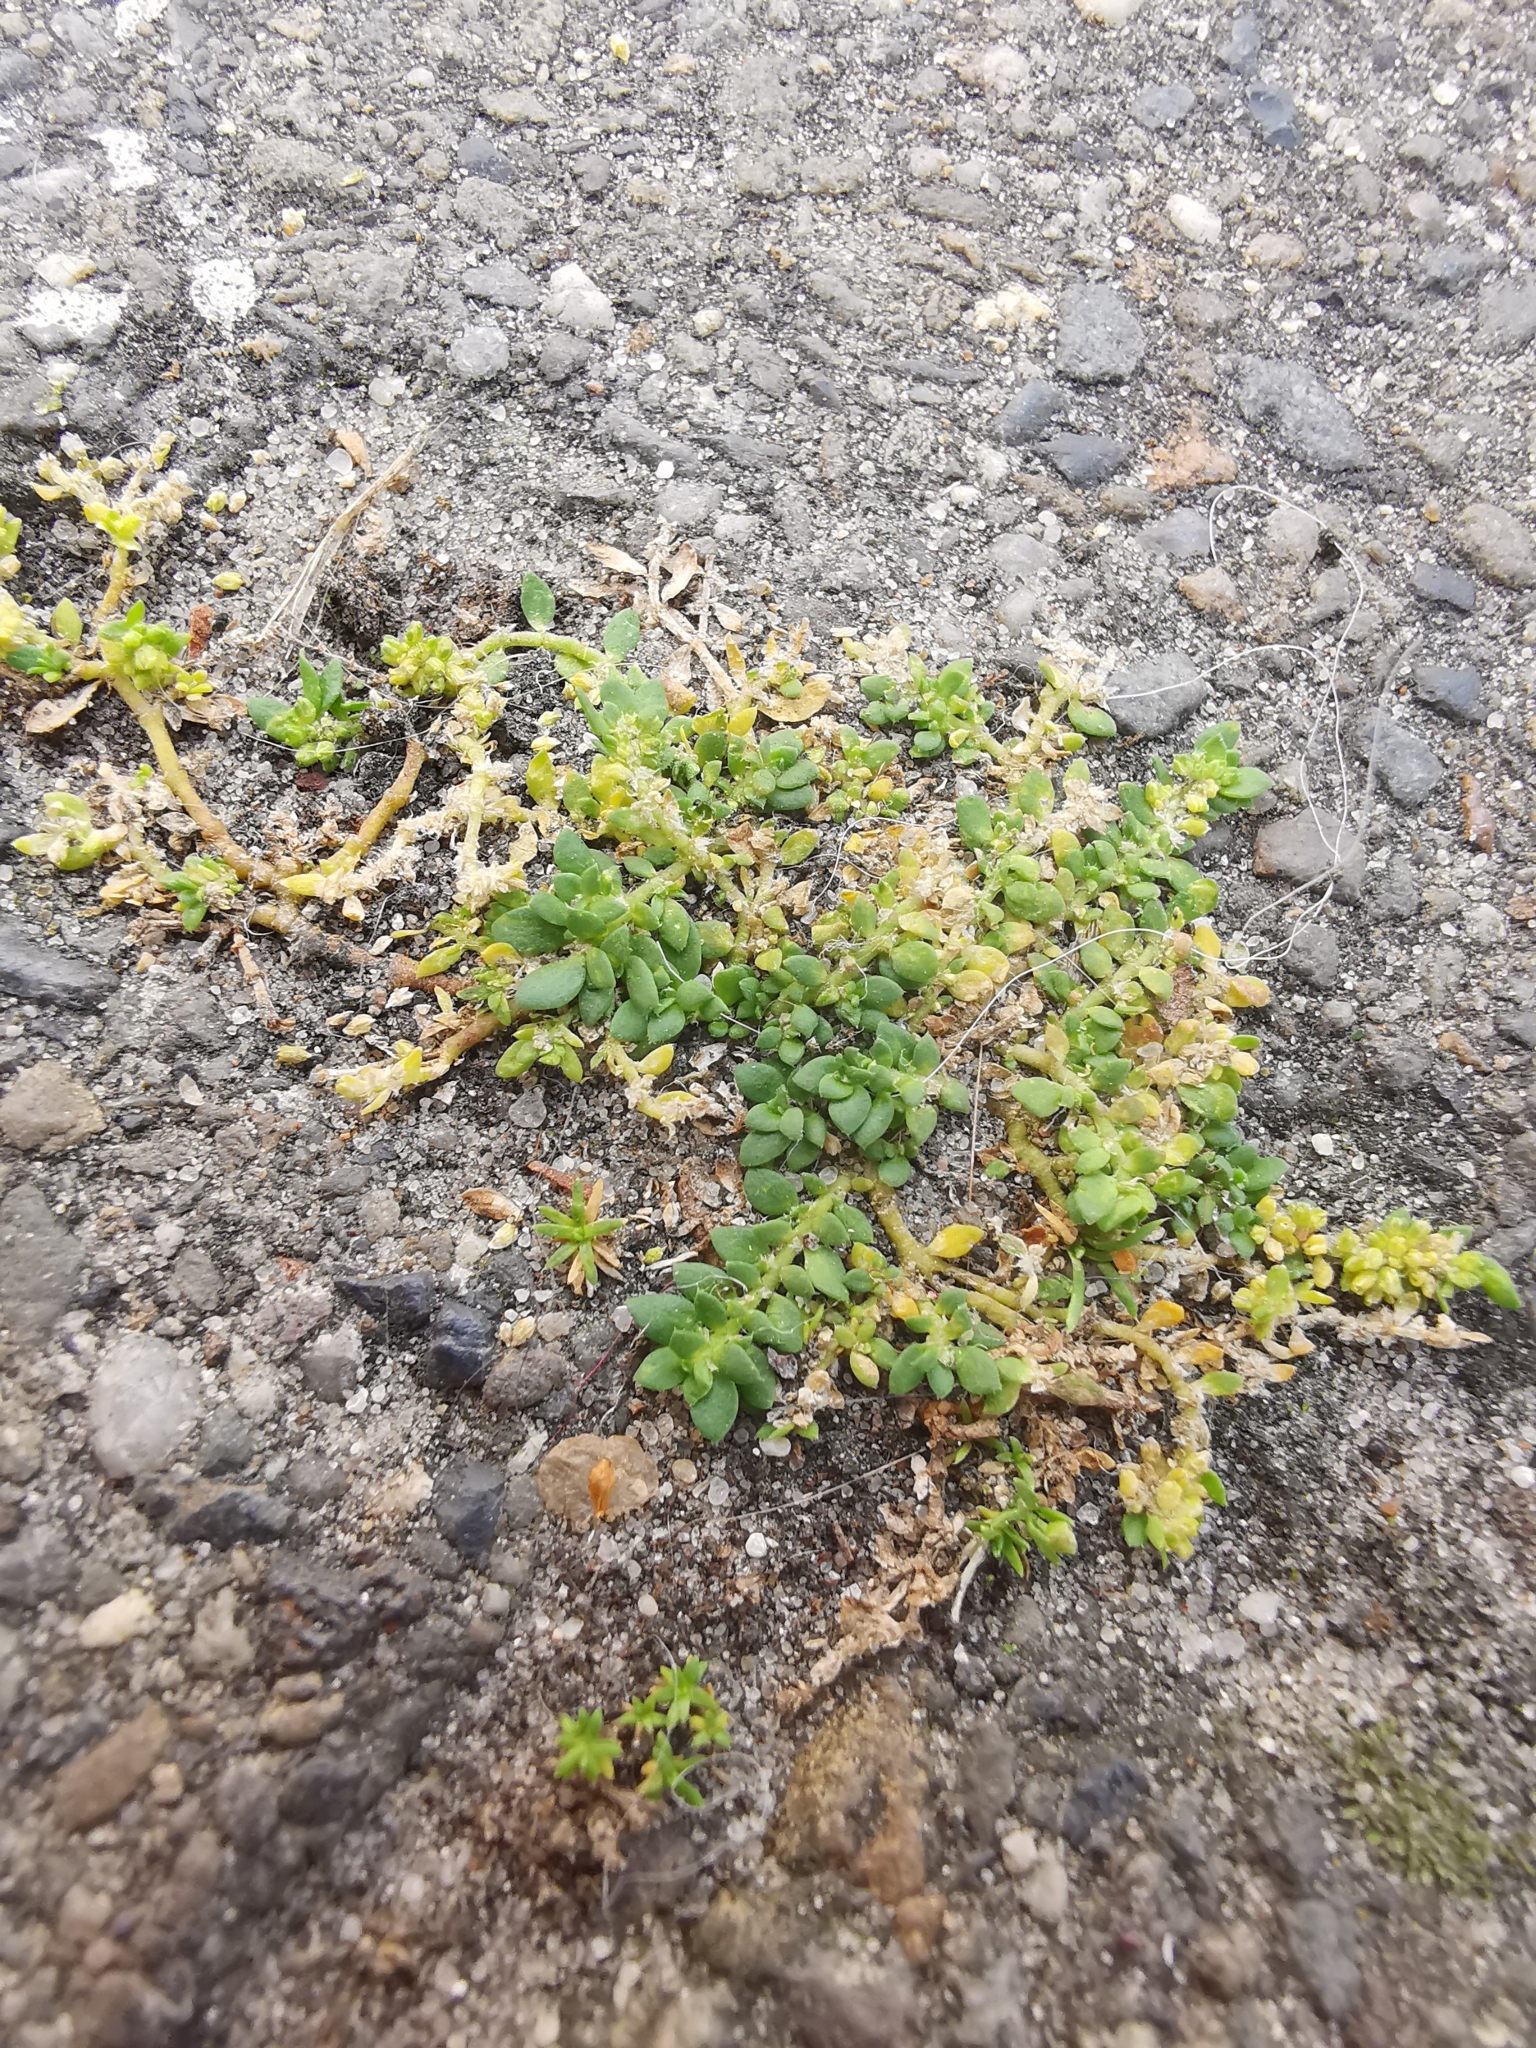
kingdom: Plantae
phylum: Tracheophyta
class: Magnoliopsida
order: Caryophyllales
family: Caryophyllaceae
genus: Herniaria
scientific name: Herniaria glabra
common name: Smooth rupturewort
